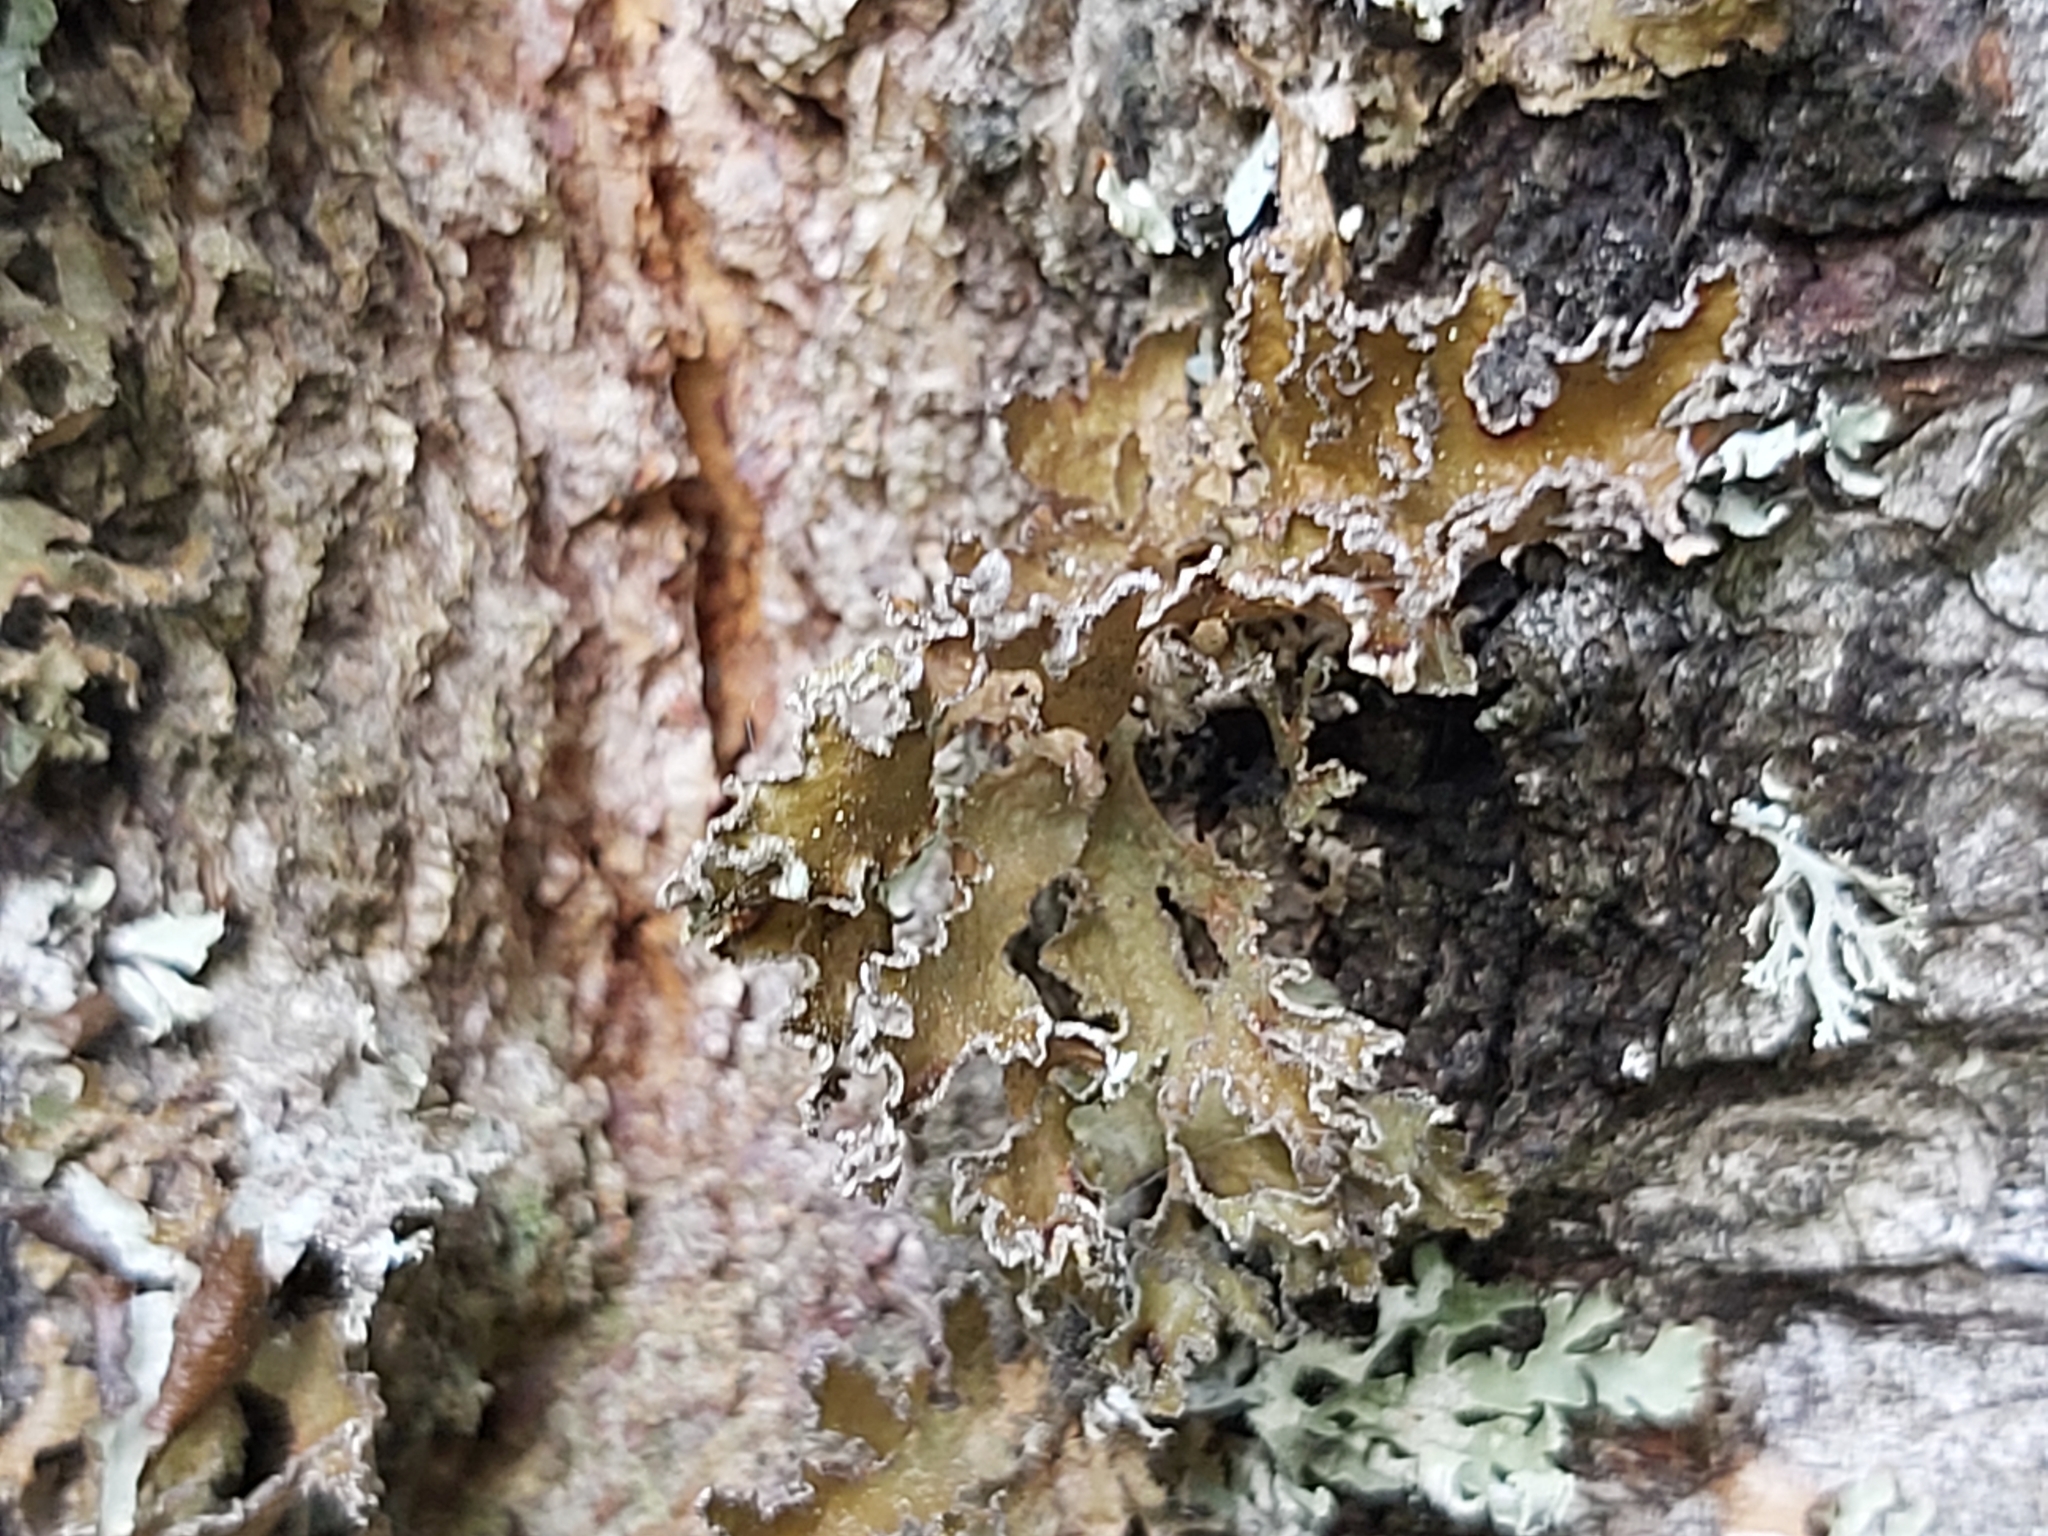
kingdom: Fungi
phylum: Ascomycota
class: Lecanoromycetes
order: Lecanorales
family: Parmeliaceae
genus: Nephromopsis
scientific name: Nephromopsis chlorophylla
